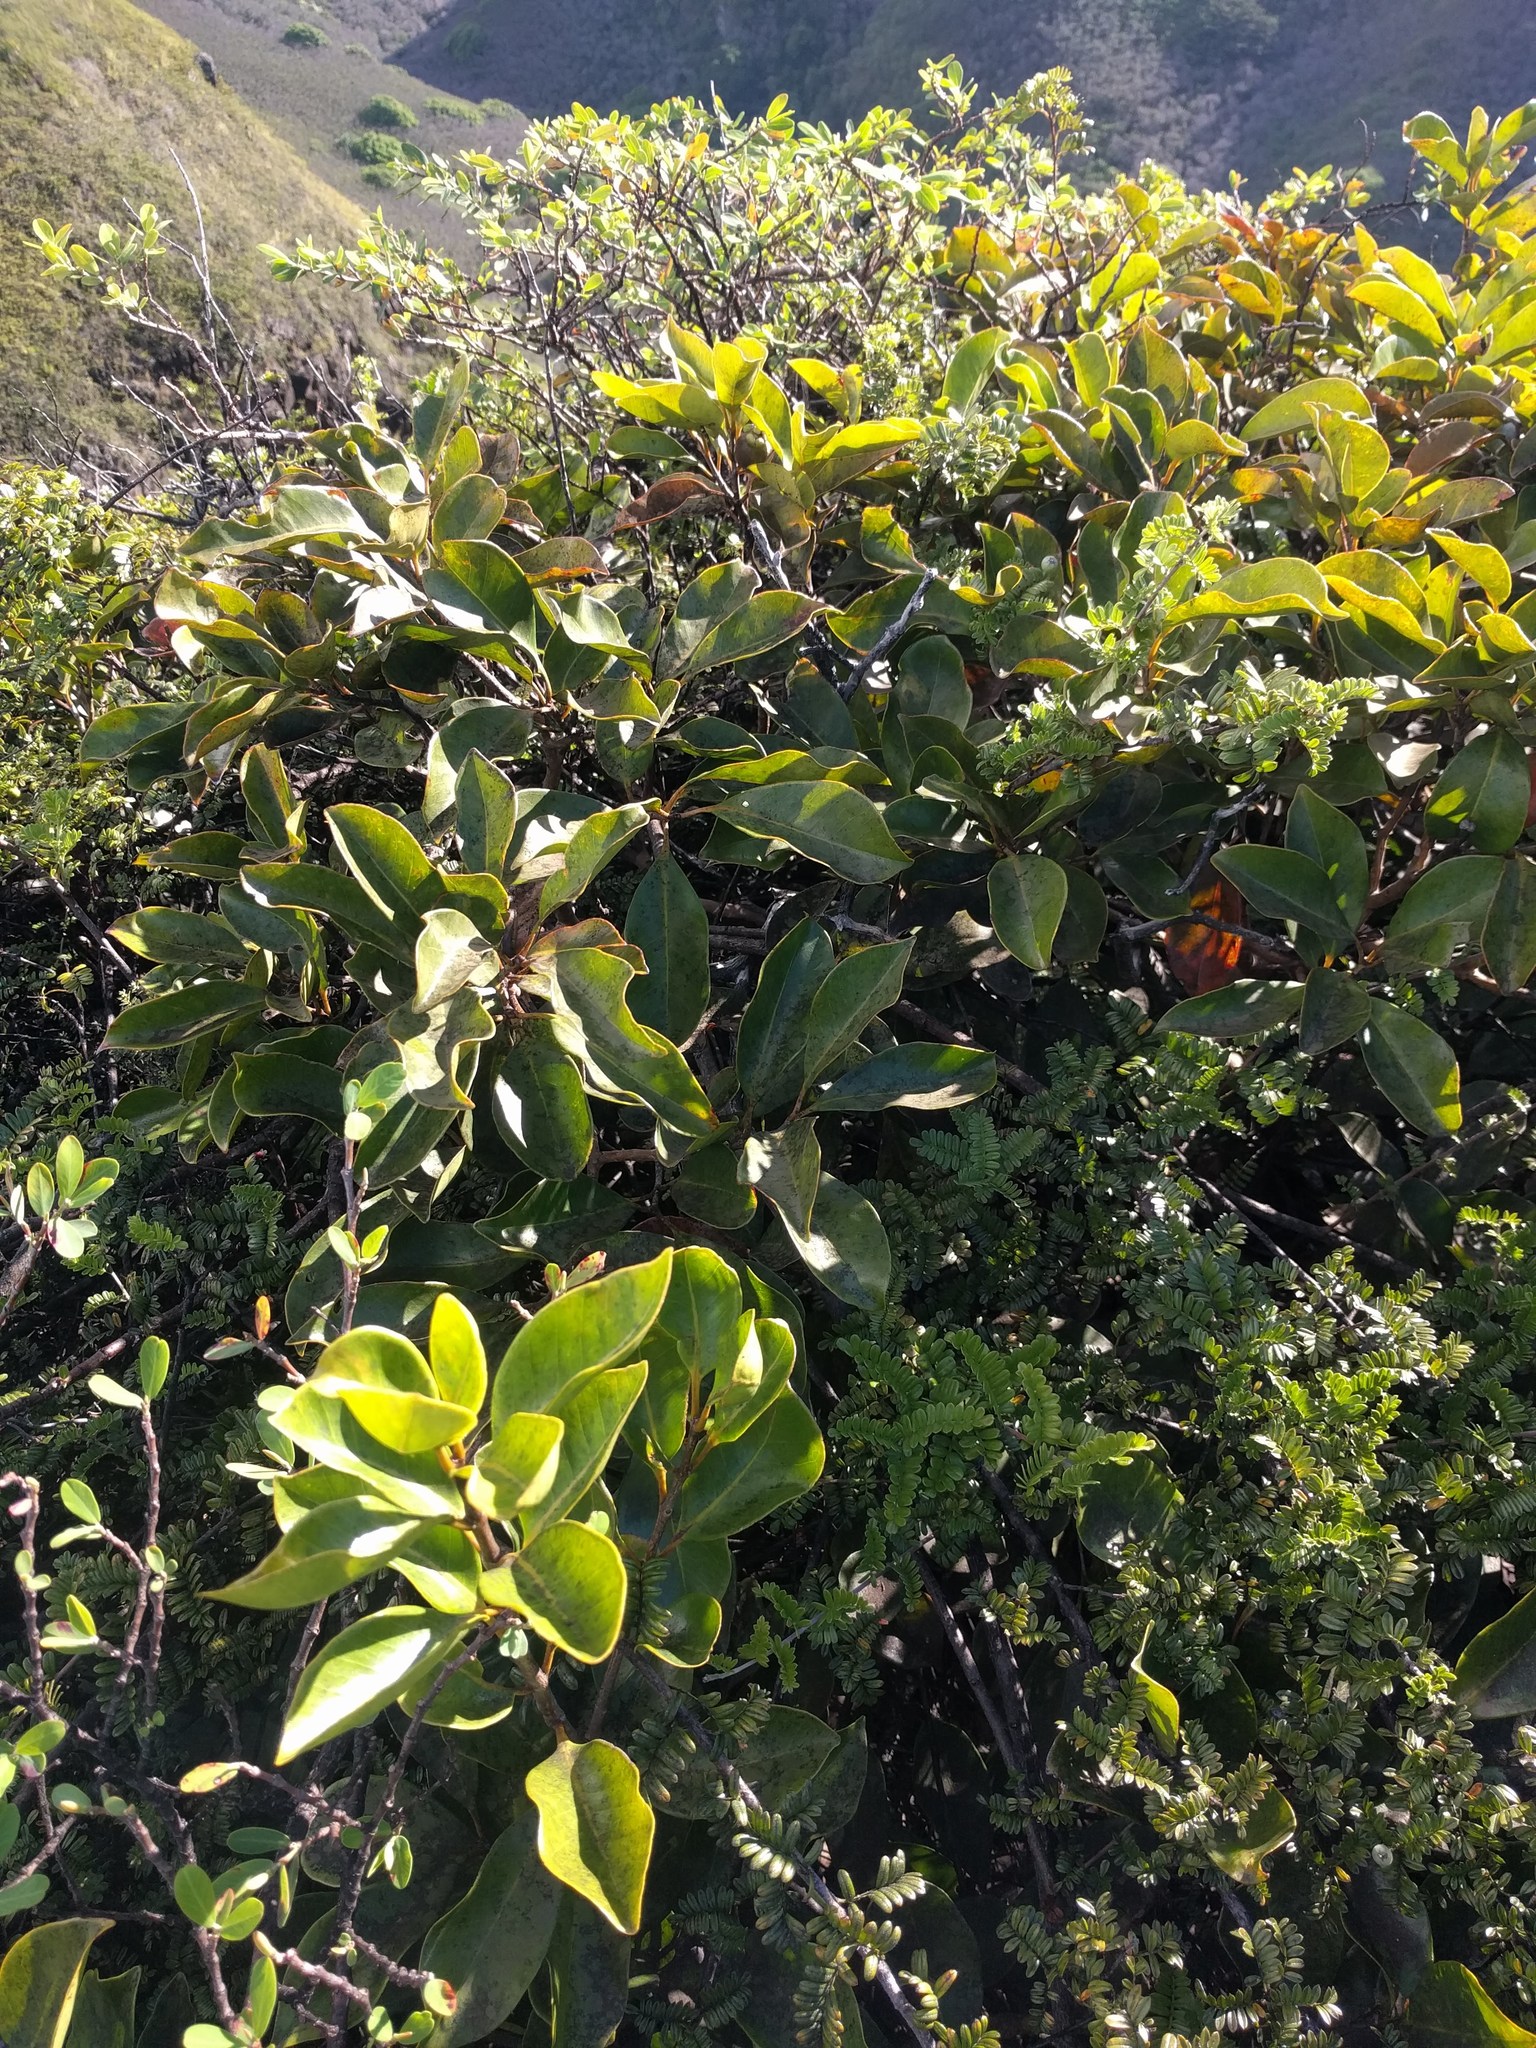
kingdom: Plantae
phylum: Tracheophyta
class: Magnoliopsida
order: Myrtales
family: Myrtaceae
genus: Psidium
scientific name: Psidium cattleianum
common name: Strawberry guava
